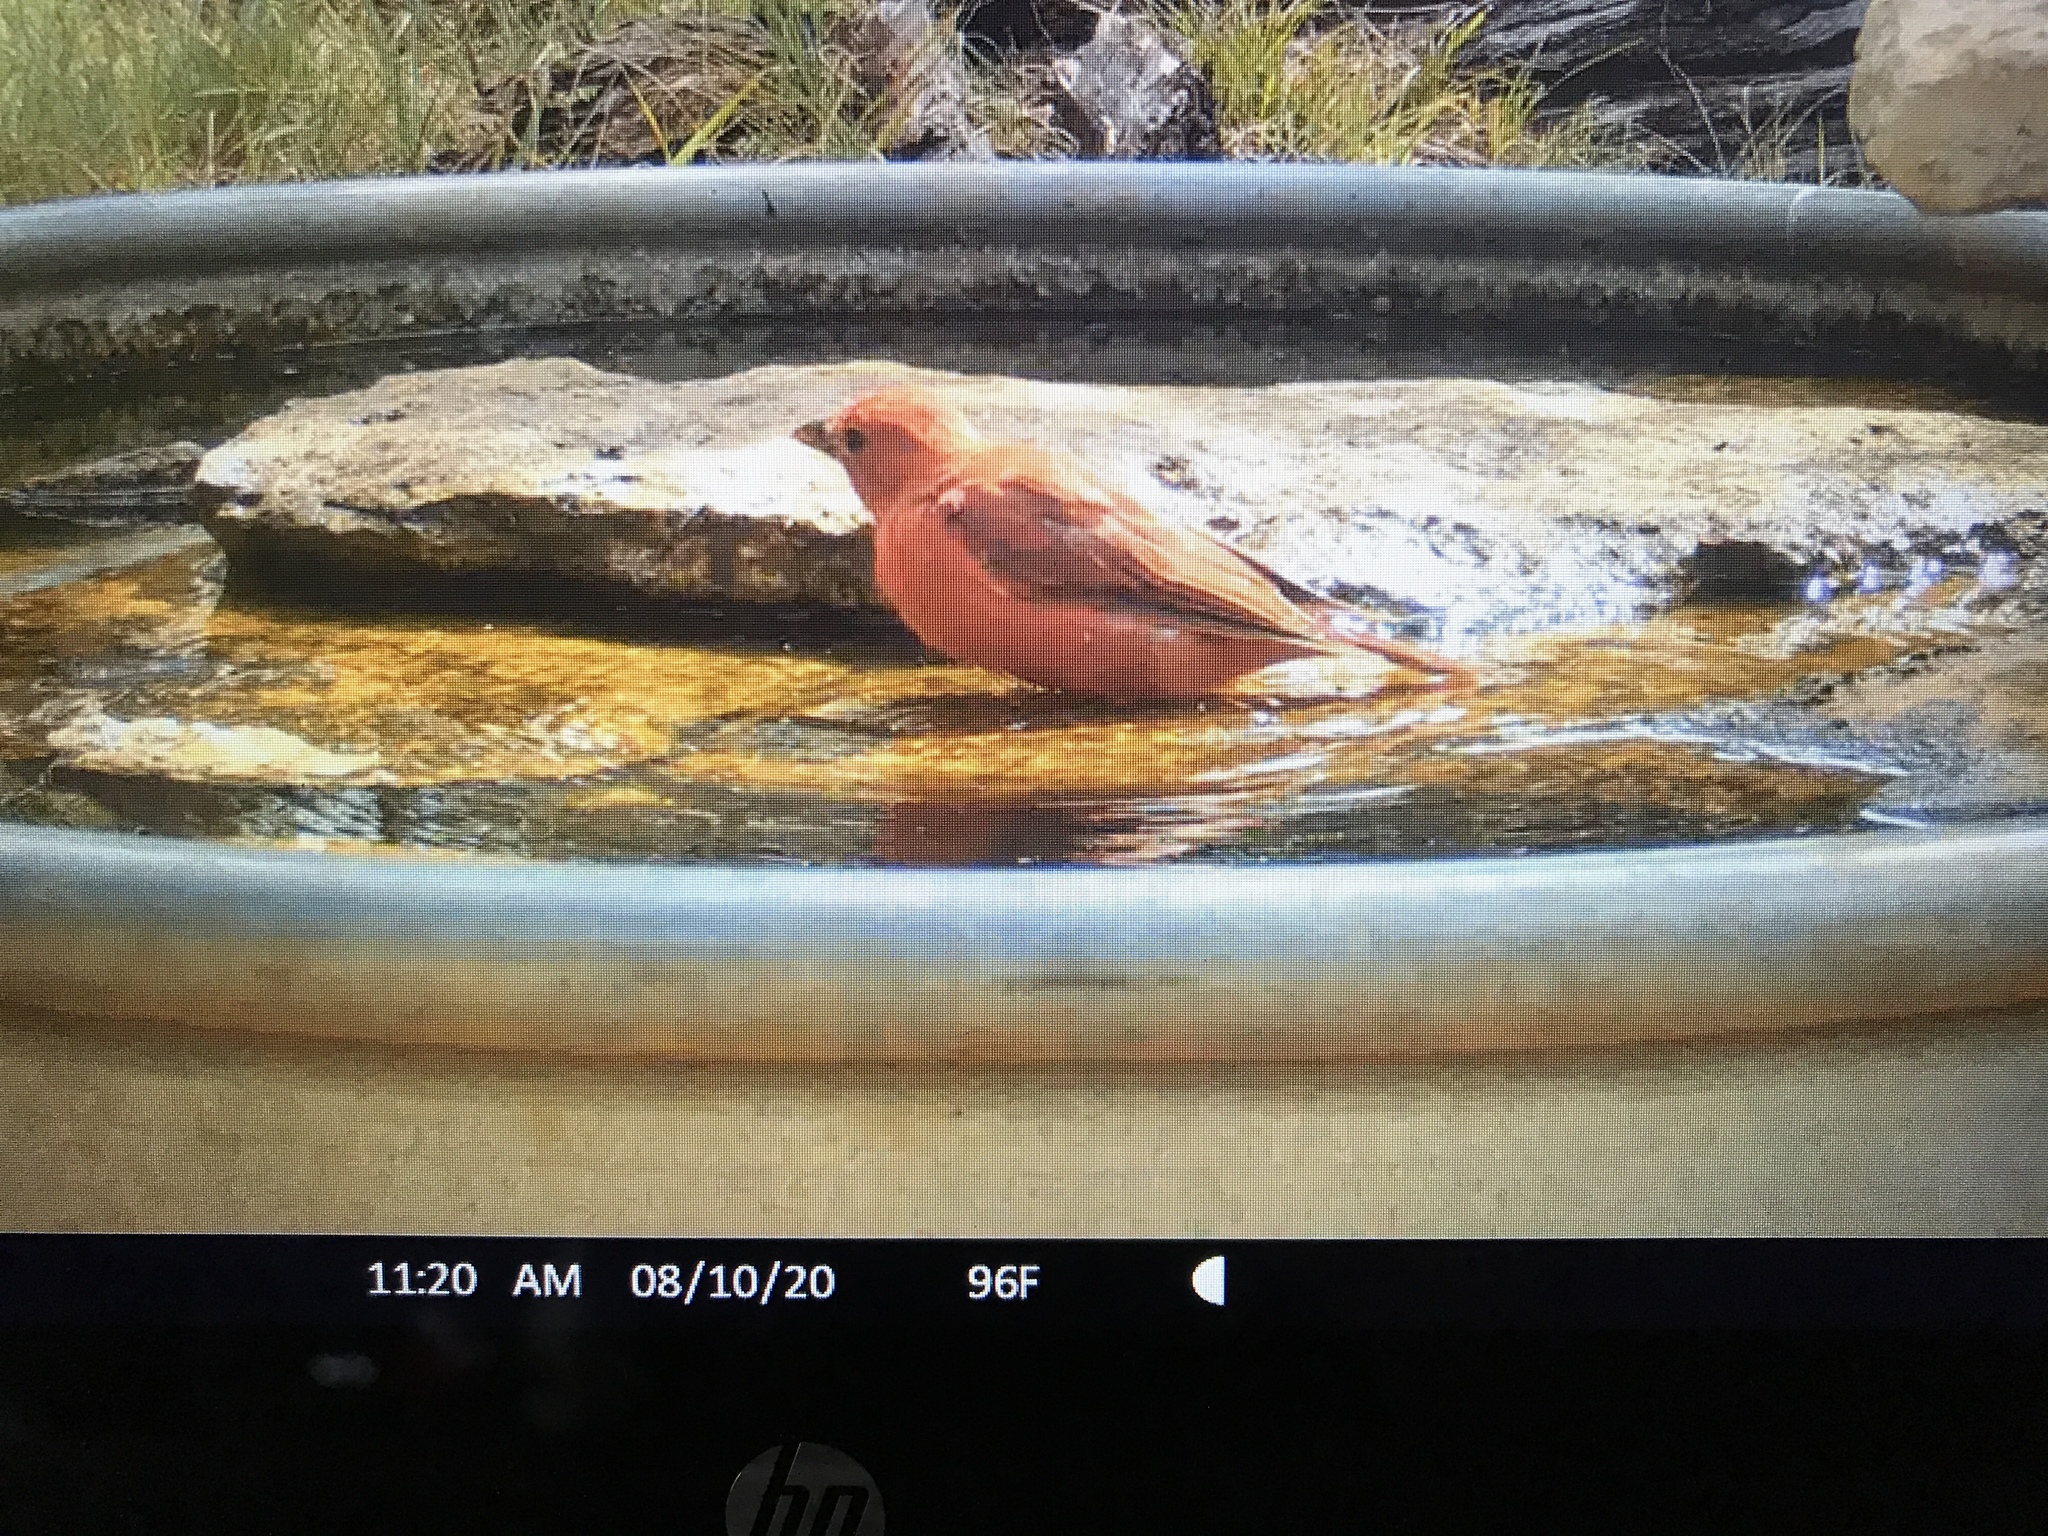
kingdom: Animalia
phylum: Chordata
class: Aves
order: Passeriformes
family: Cardinalidae
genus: Piranga
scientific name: Piranga rubra
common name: Summer tanager
